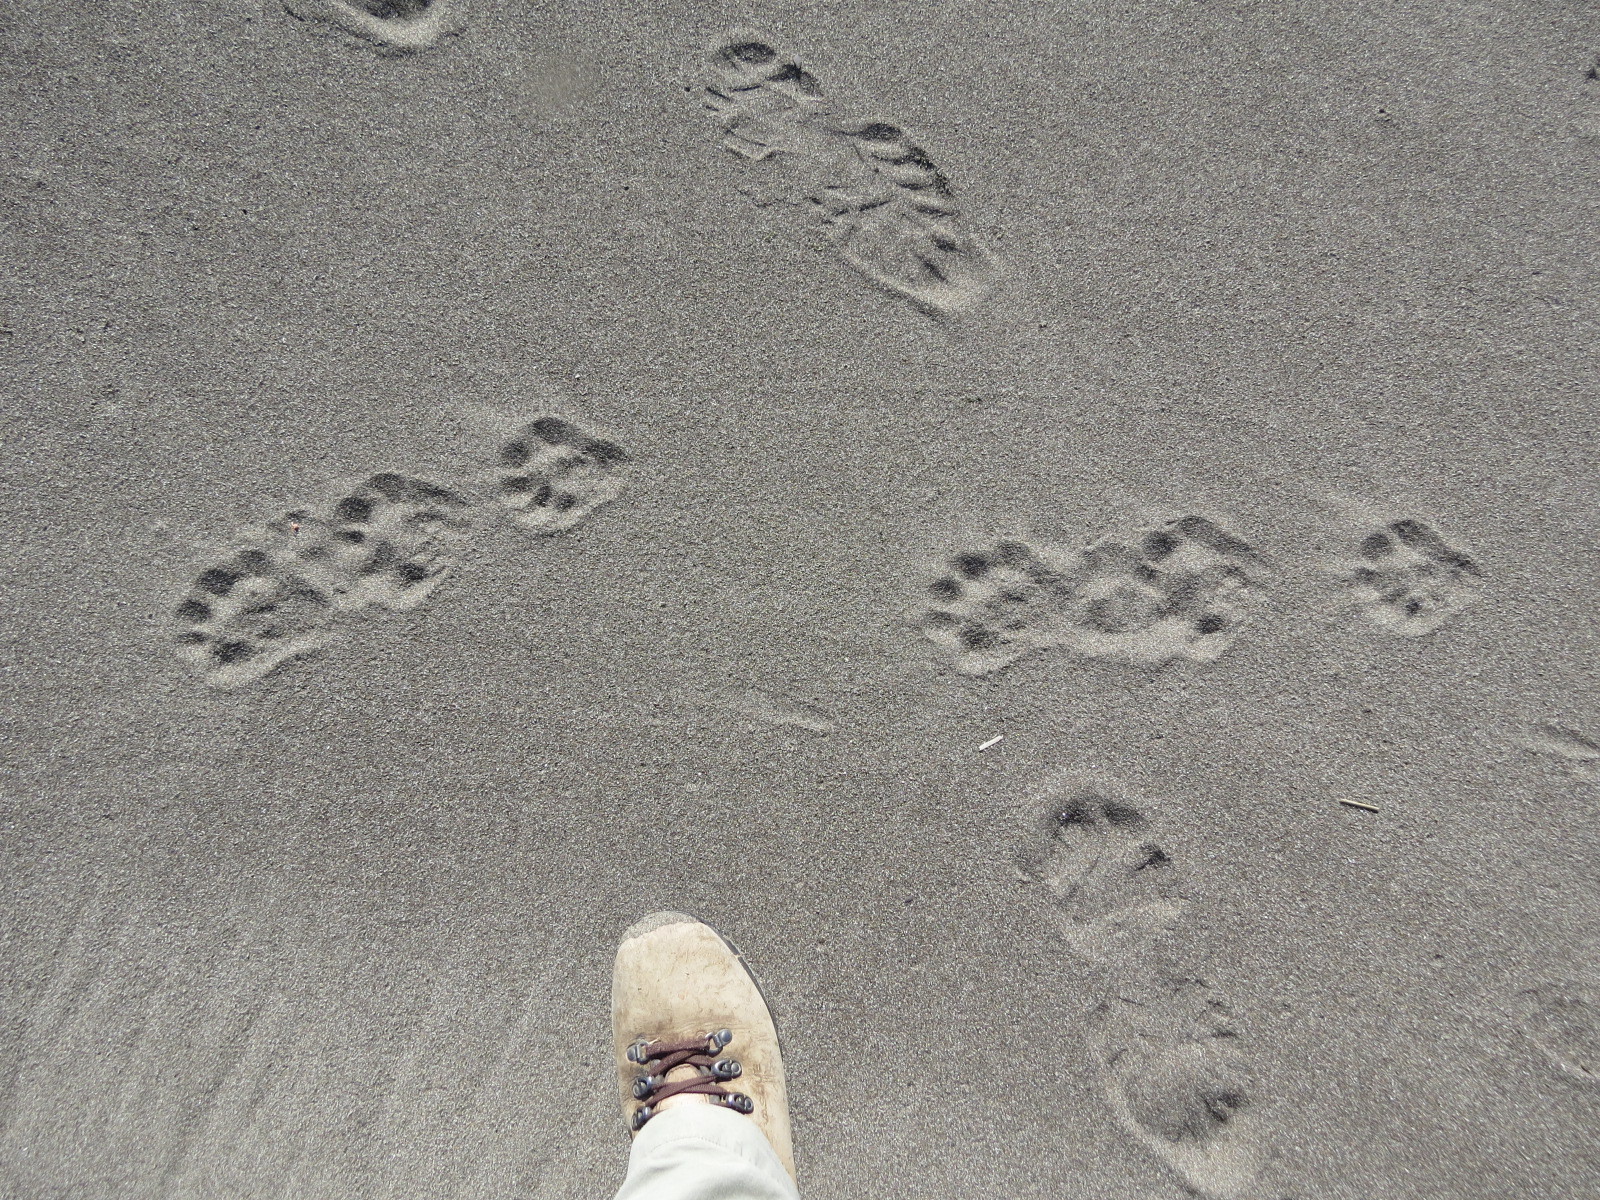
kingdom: Animalia
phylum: Chordata
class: Mammalia
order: Carnivora
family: Mustelidae
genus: Lontra
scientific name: Lontra canadensis
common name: North american river otter
